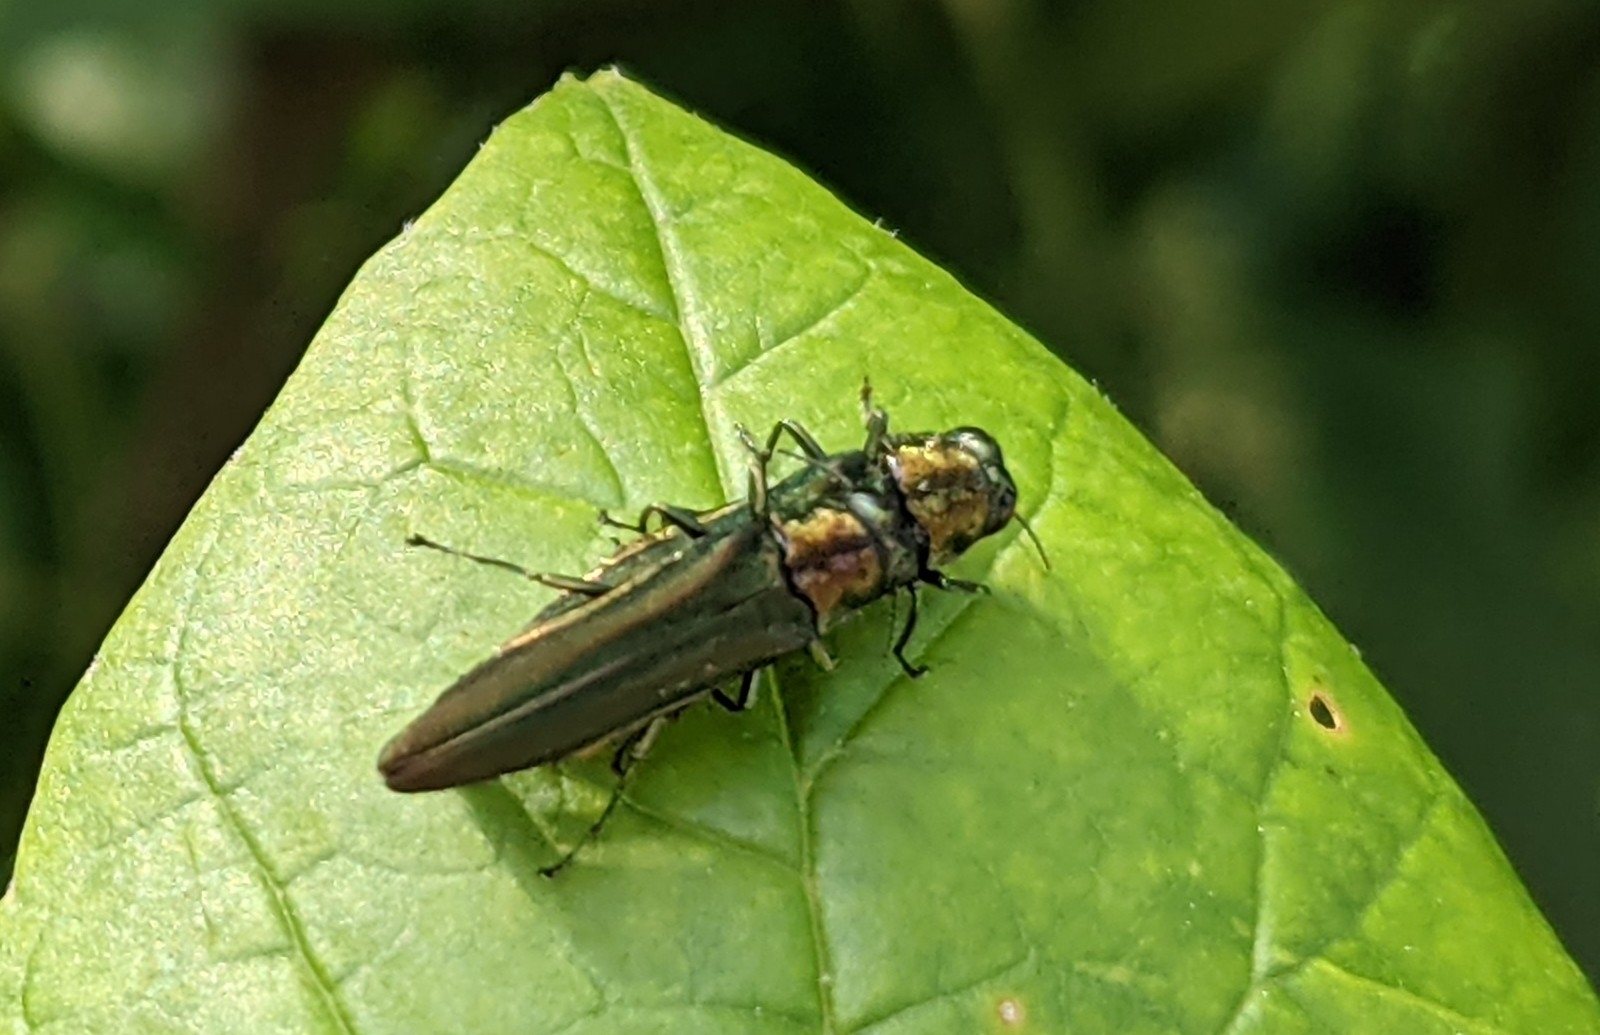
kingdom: Animalia
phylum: Arthropoda
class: Insecta
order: Coleoptera
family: Buprestidae
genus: Agrilus
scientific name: Agrilus planipennis
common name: Emerald ash borer
